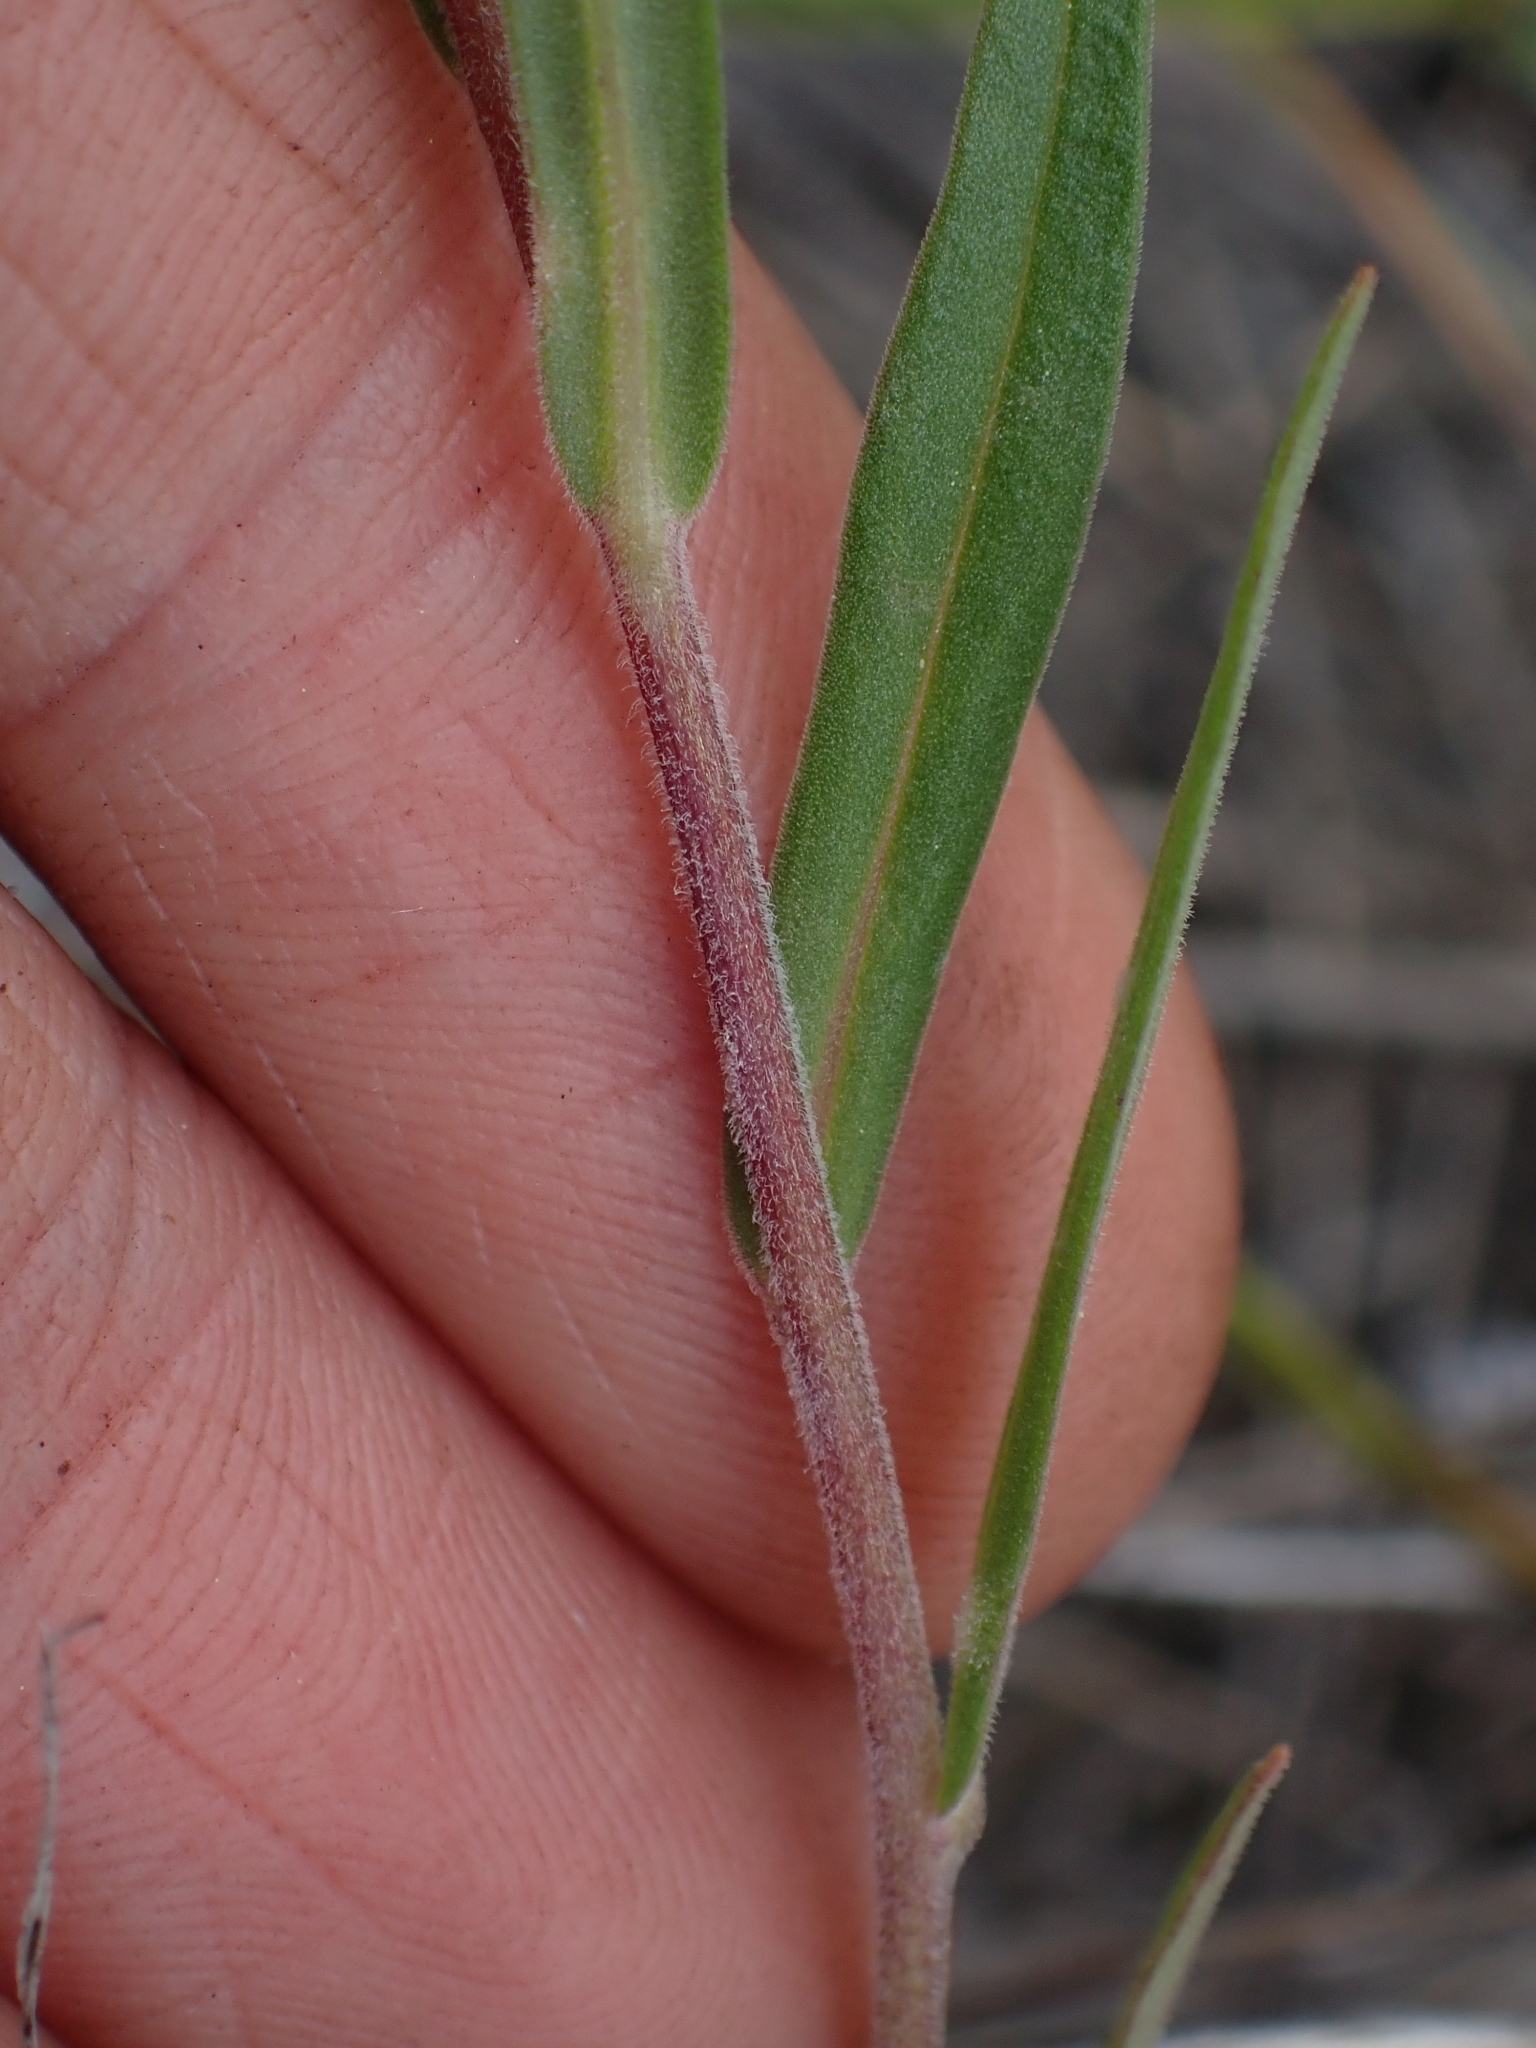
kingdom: Plantae
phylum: Tracheophyta
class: Magnoliopsida
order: Ericales
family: Polemoniaceae
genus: Collomia
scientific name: Collomia linearis
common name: Tiny trumpet
